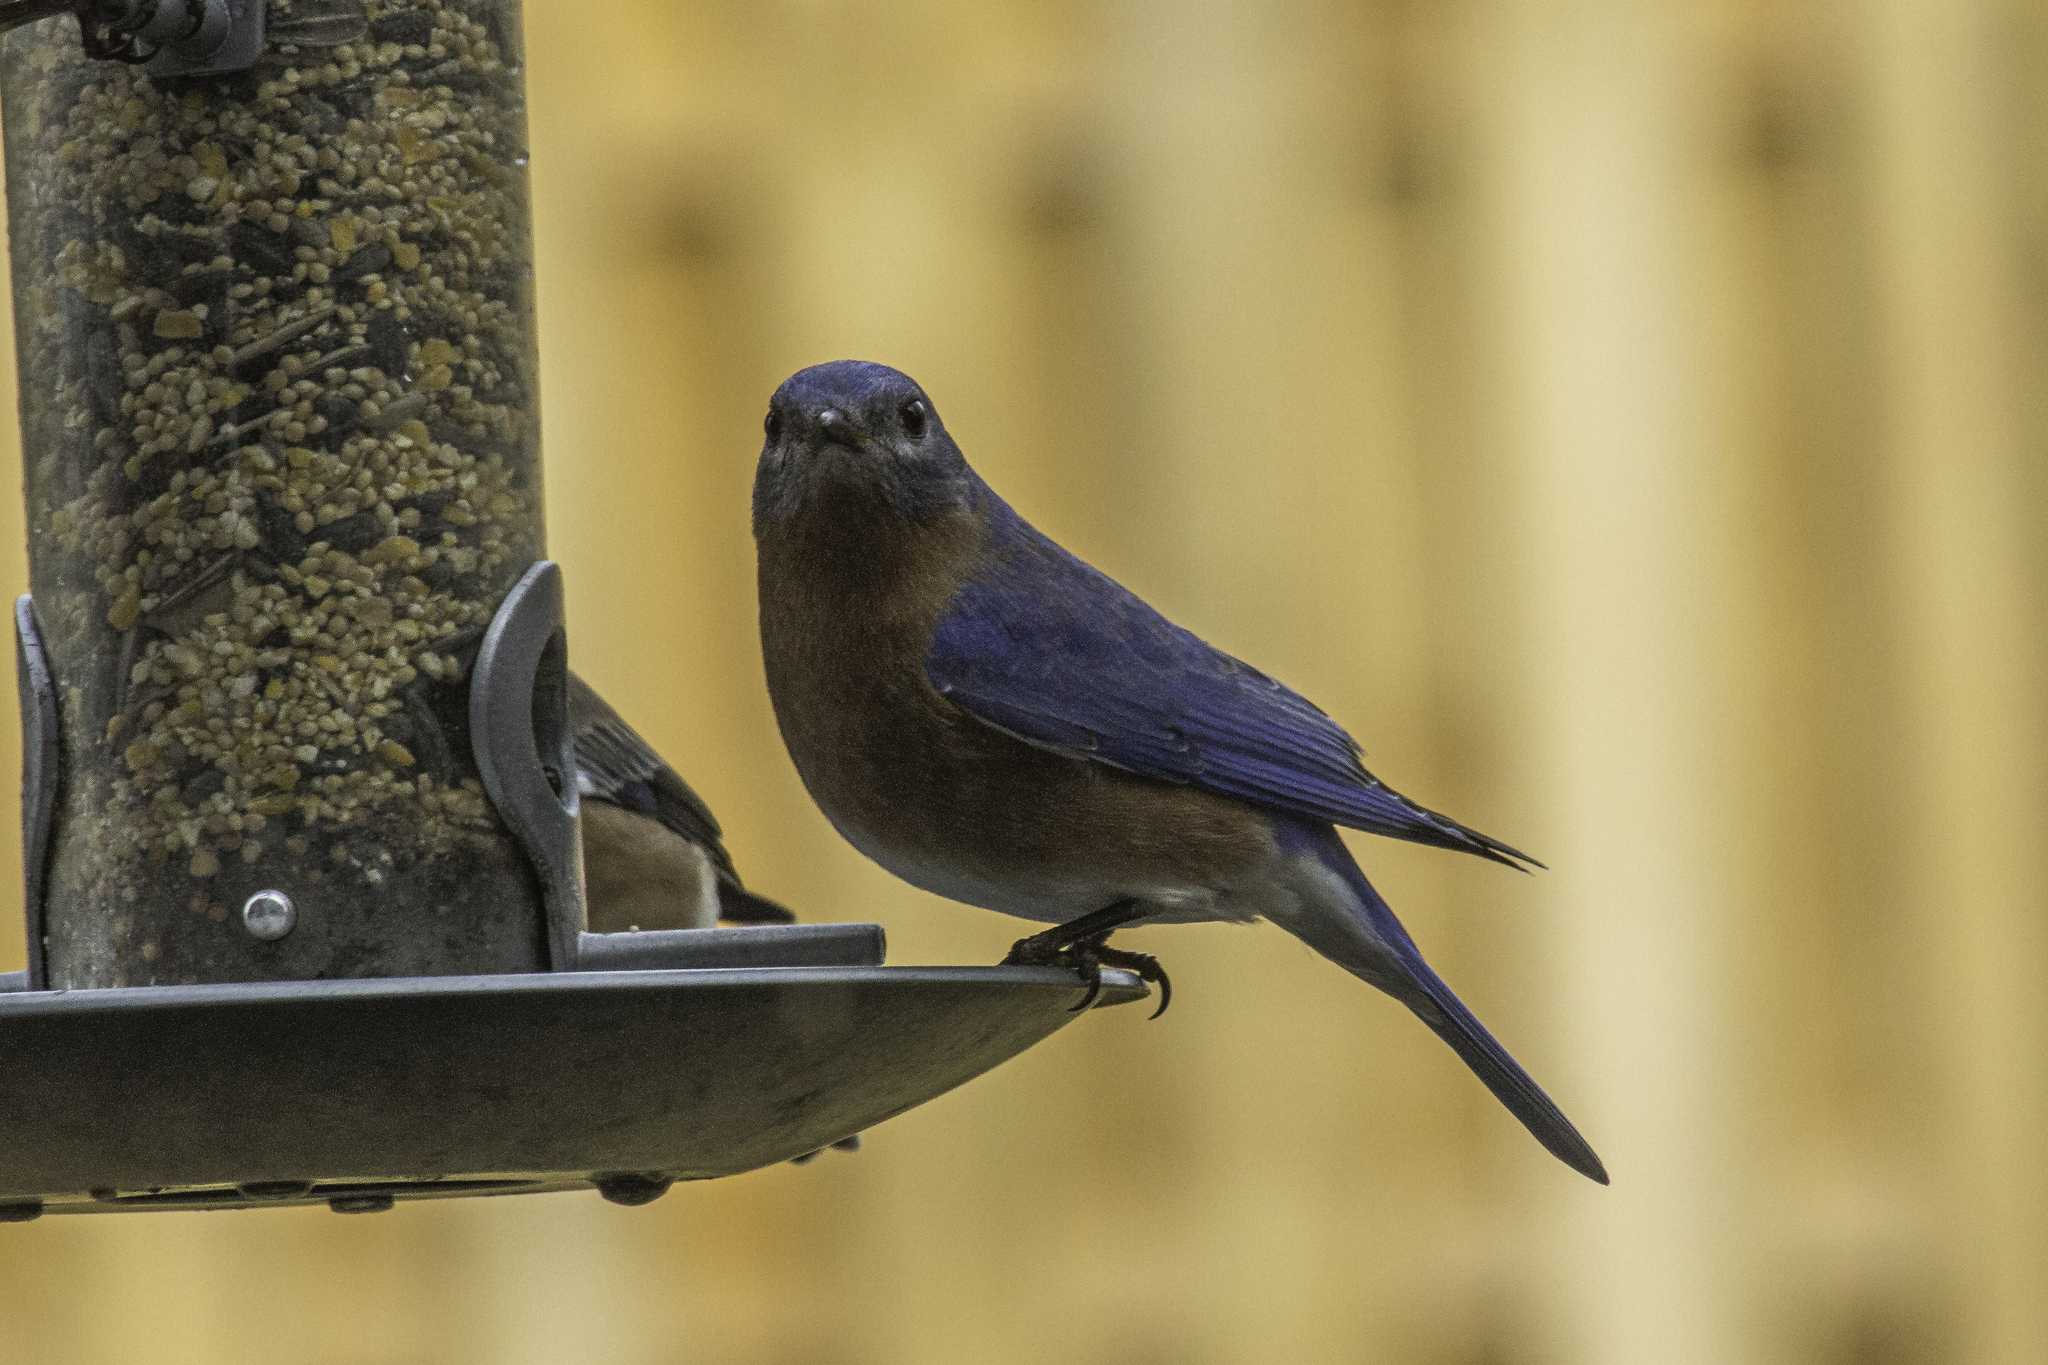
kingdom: Animalia
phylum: Chordata
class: Aves
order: Passeriformes
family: Turdidae
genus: Sialia
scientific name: Sialia sialis
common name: Eastern bluebird
